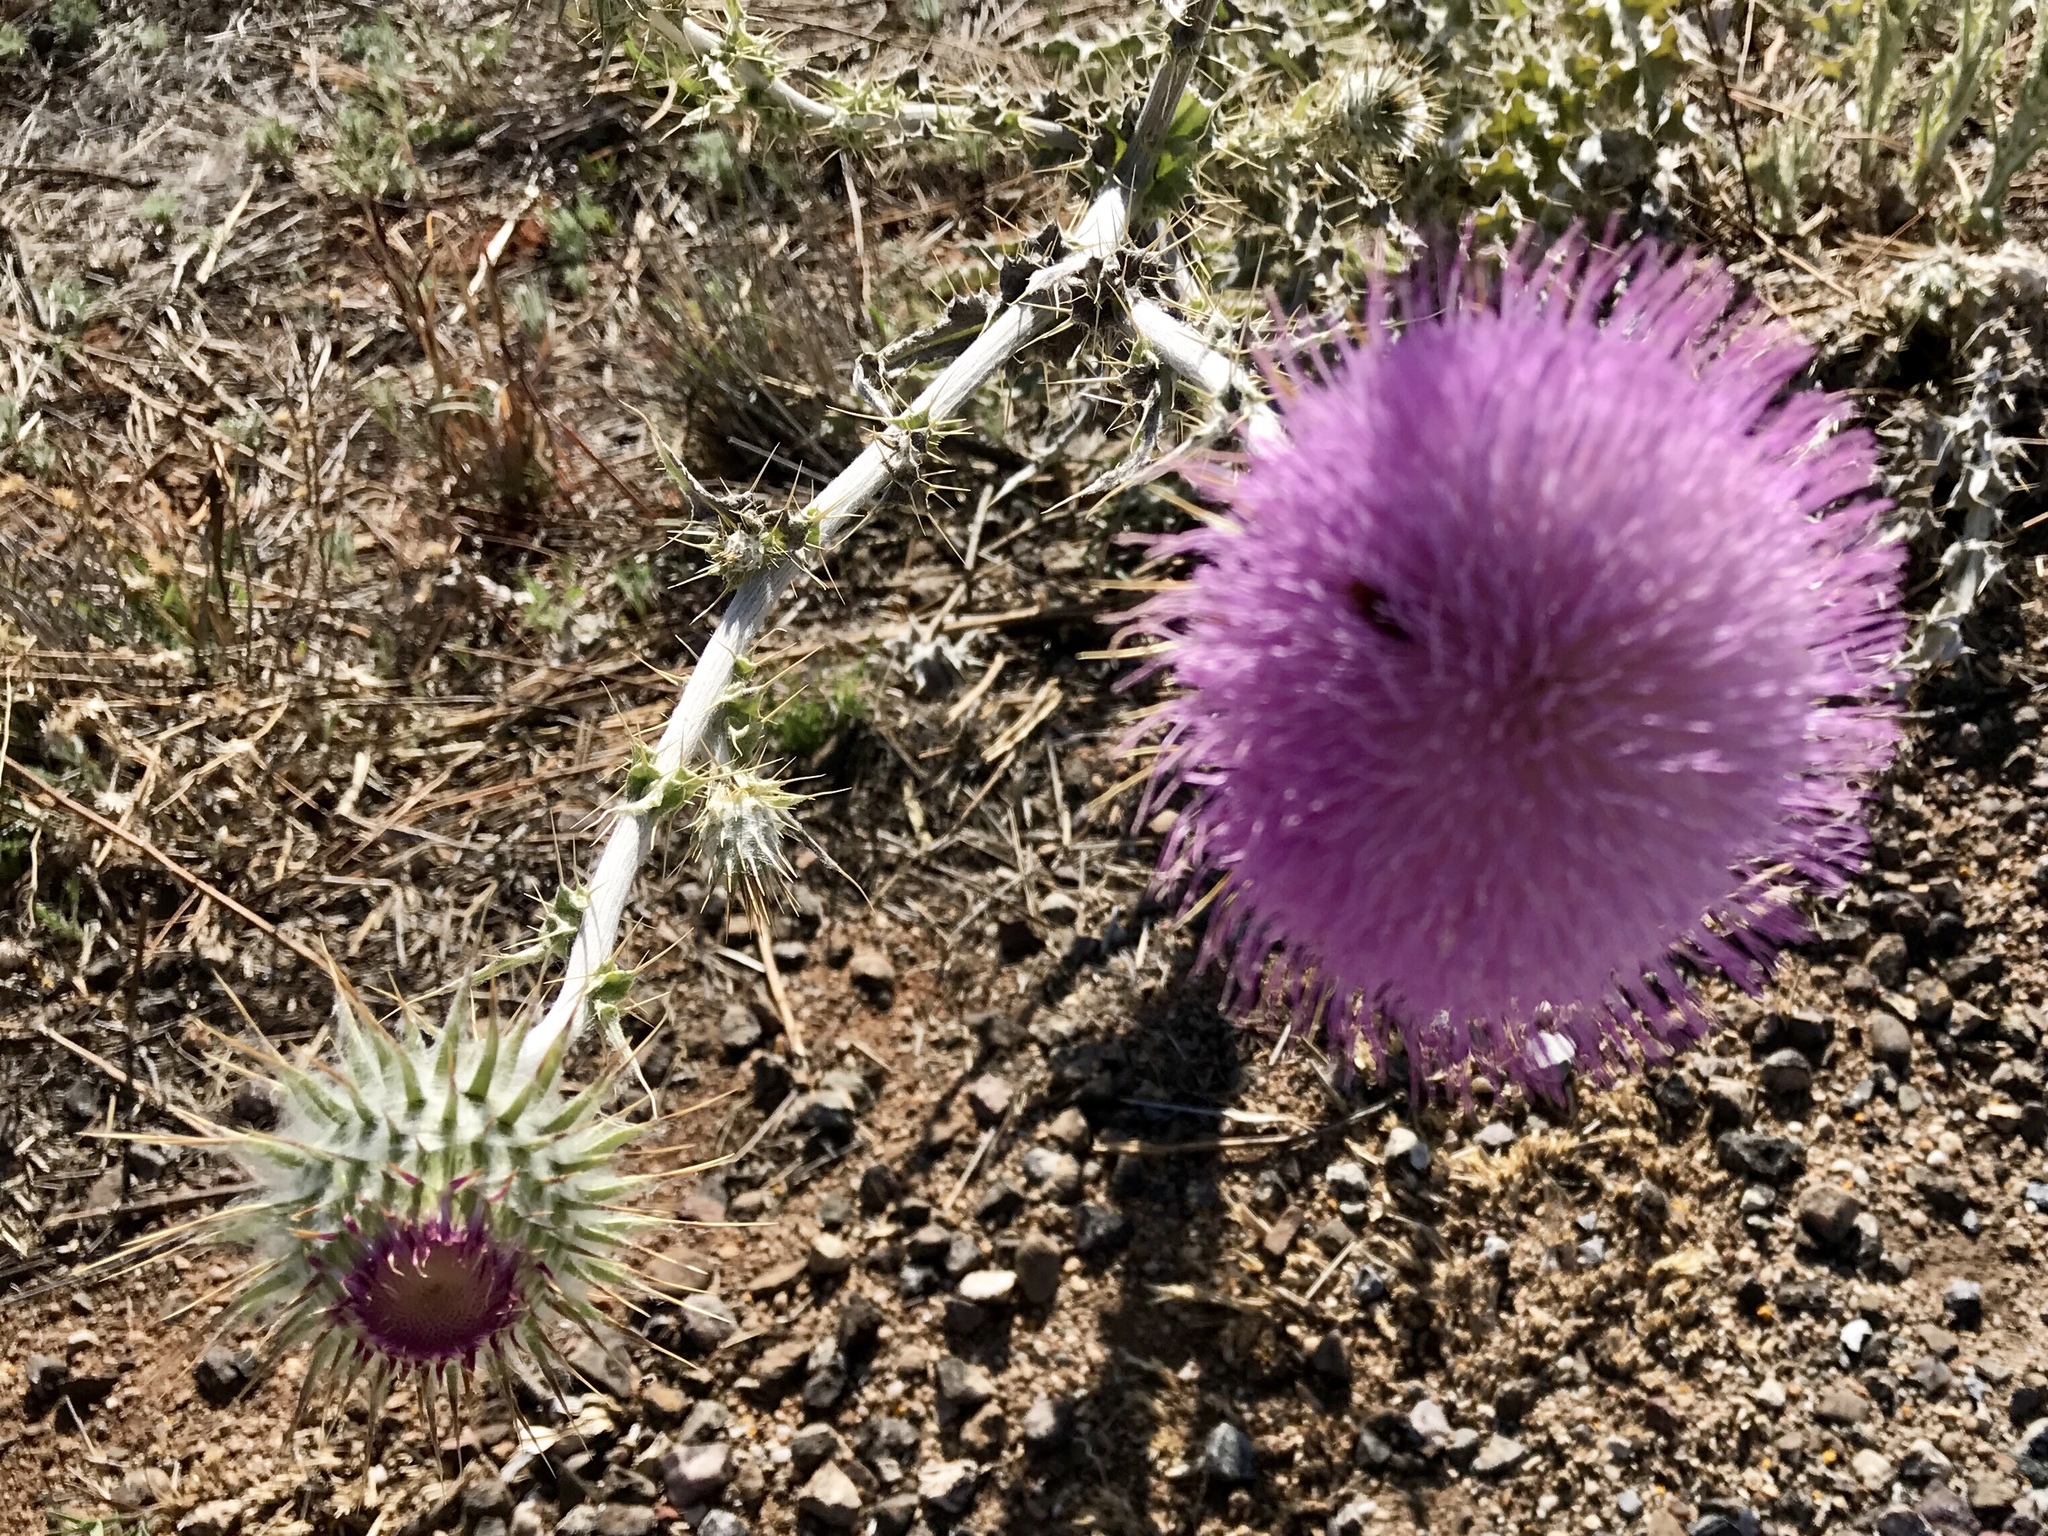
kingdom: Plantae
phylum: Tracheophyta
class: Magnoliopsida
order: Asterales
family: Asteraceae
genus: Cirsium
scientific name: Cirsium neomexicanum
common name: New mexico thistle
